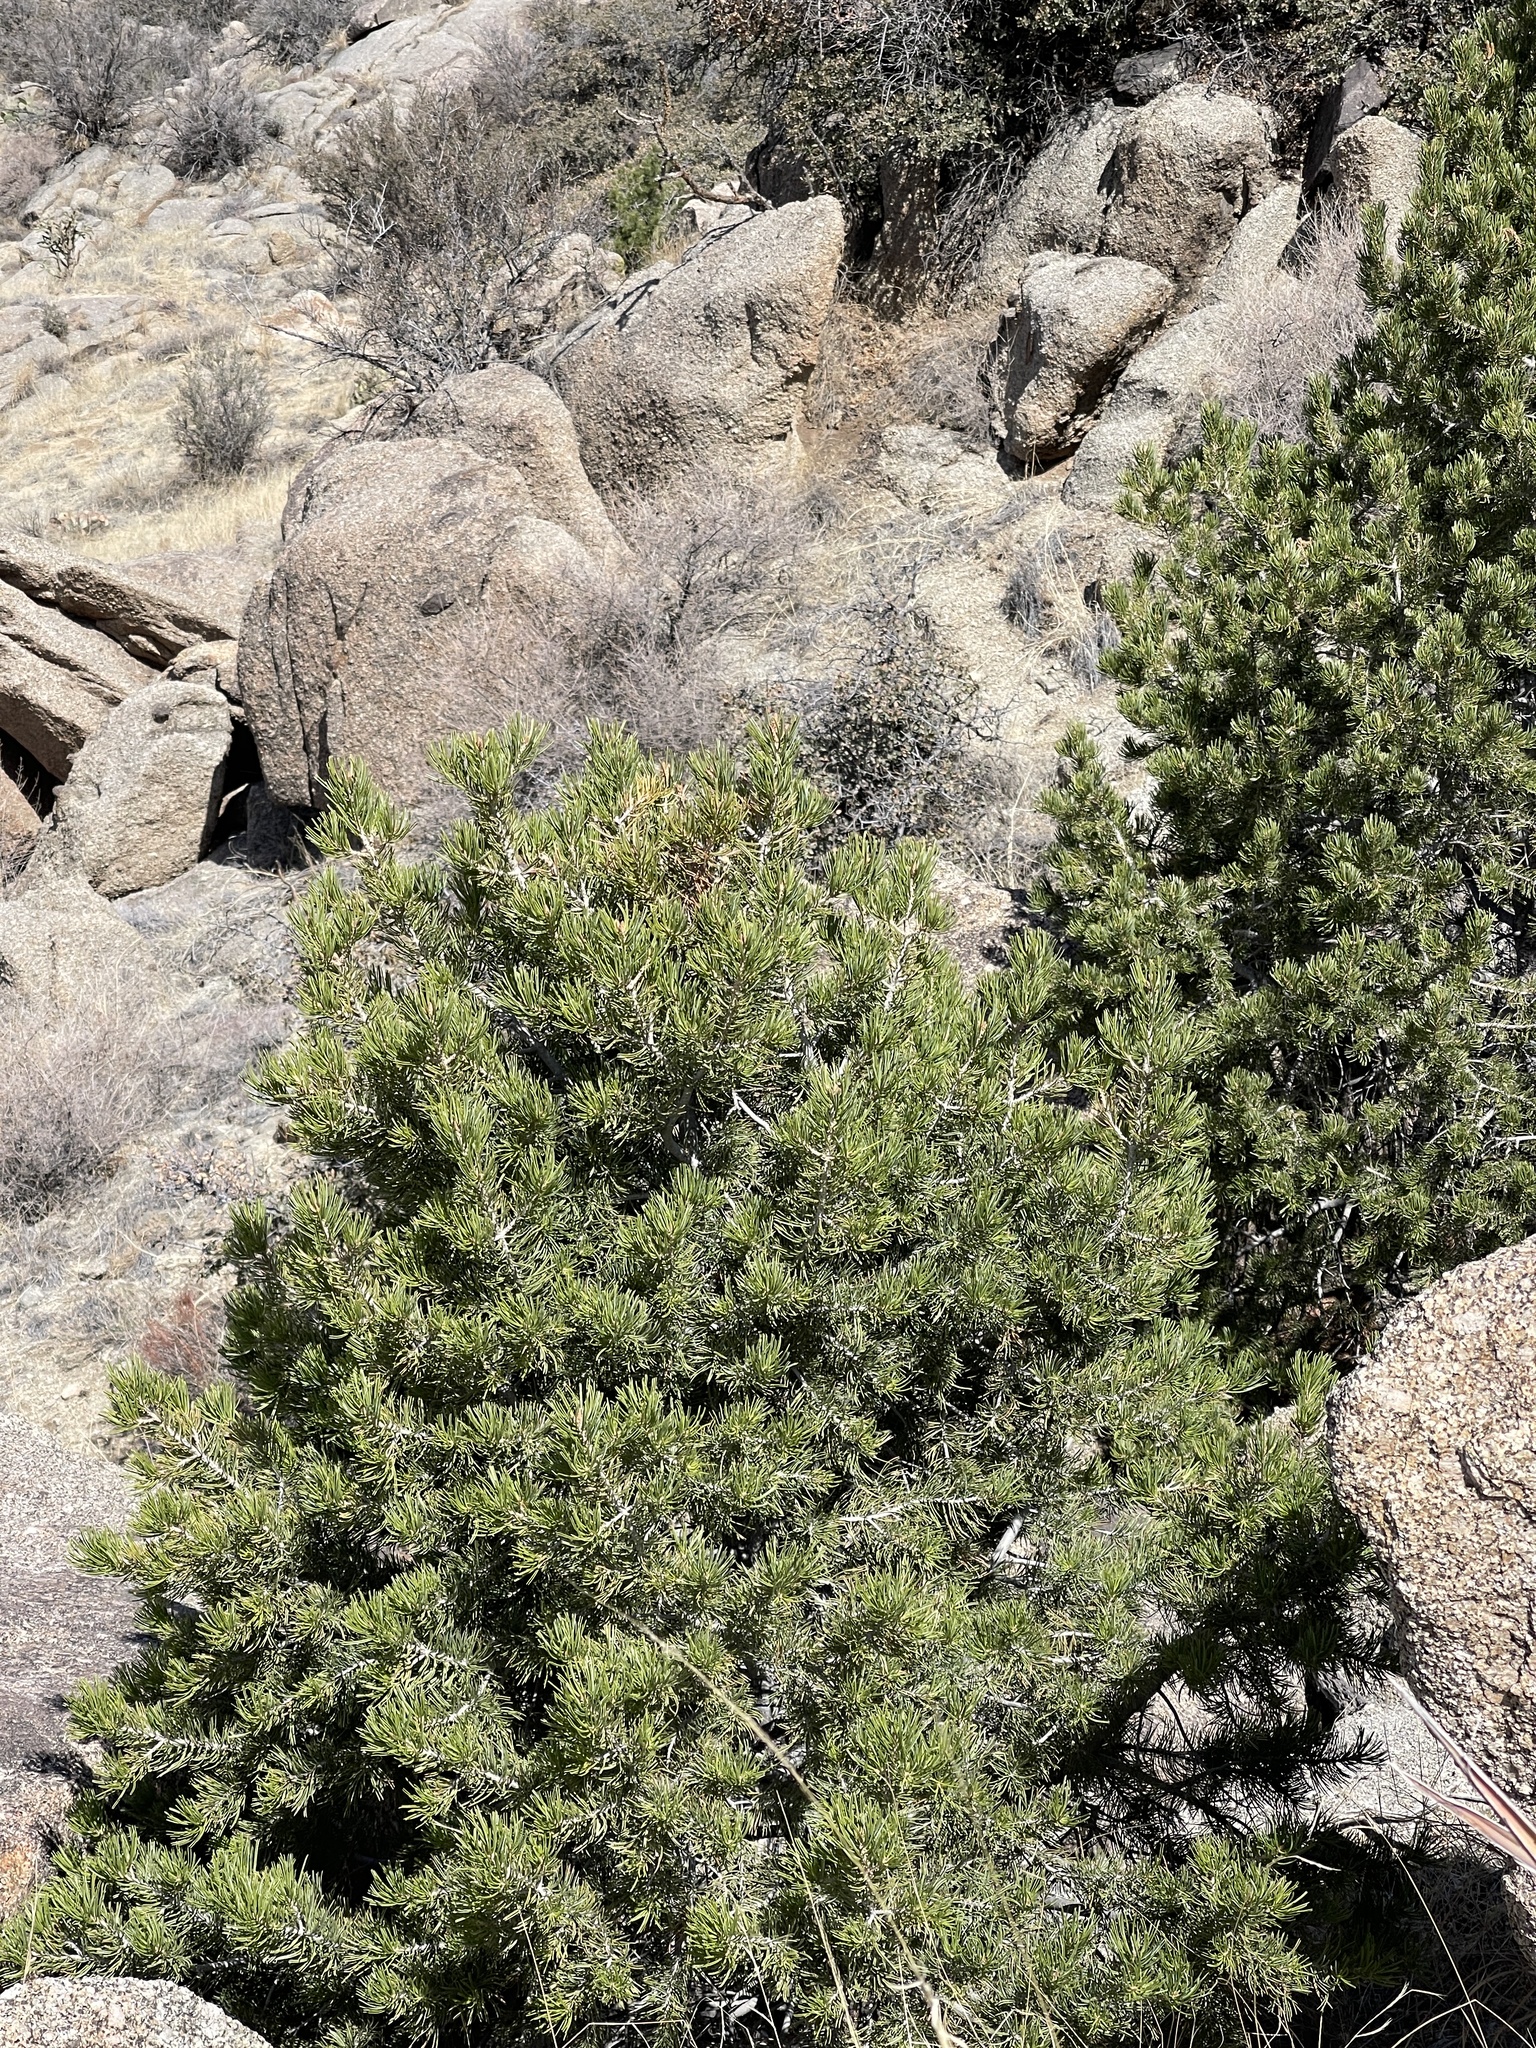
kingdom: Plantae
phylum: Tracheophyta
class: Pinopsida
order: Pinales
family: Pinaceae
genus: Pinus
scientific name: Pinus edulis
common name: Colorado pinyon
